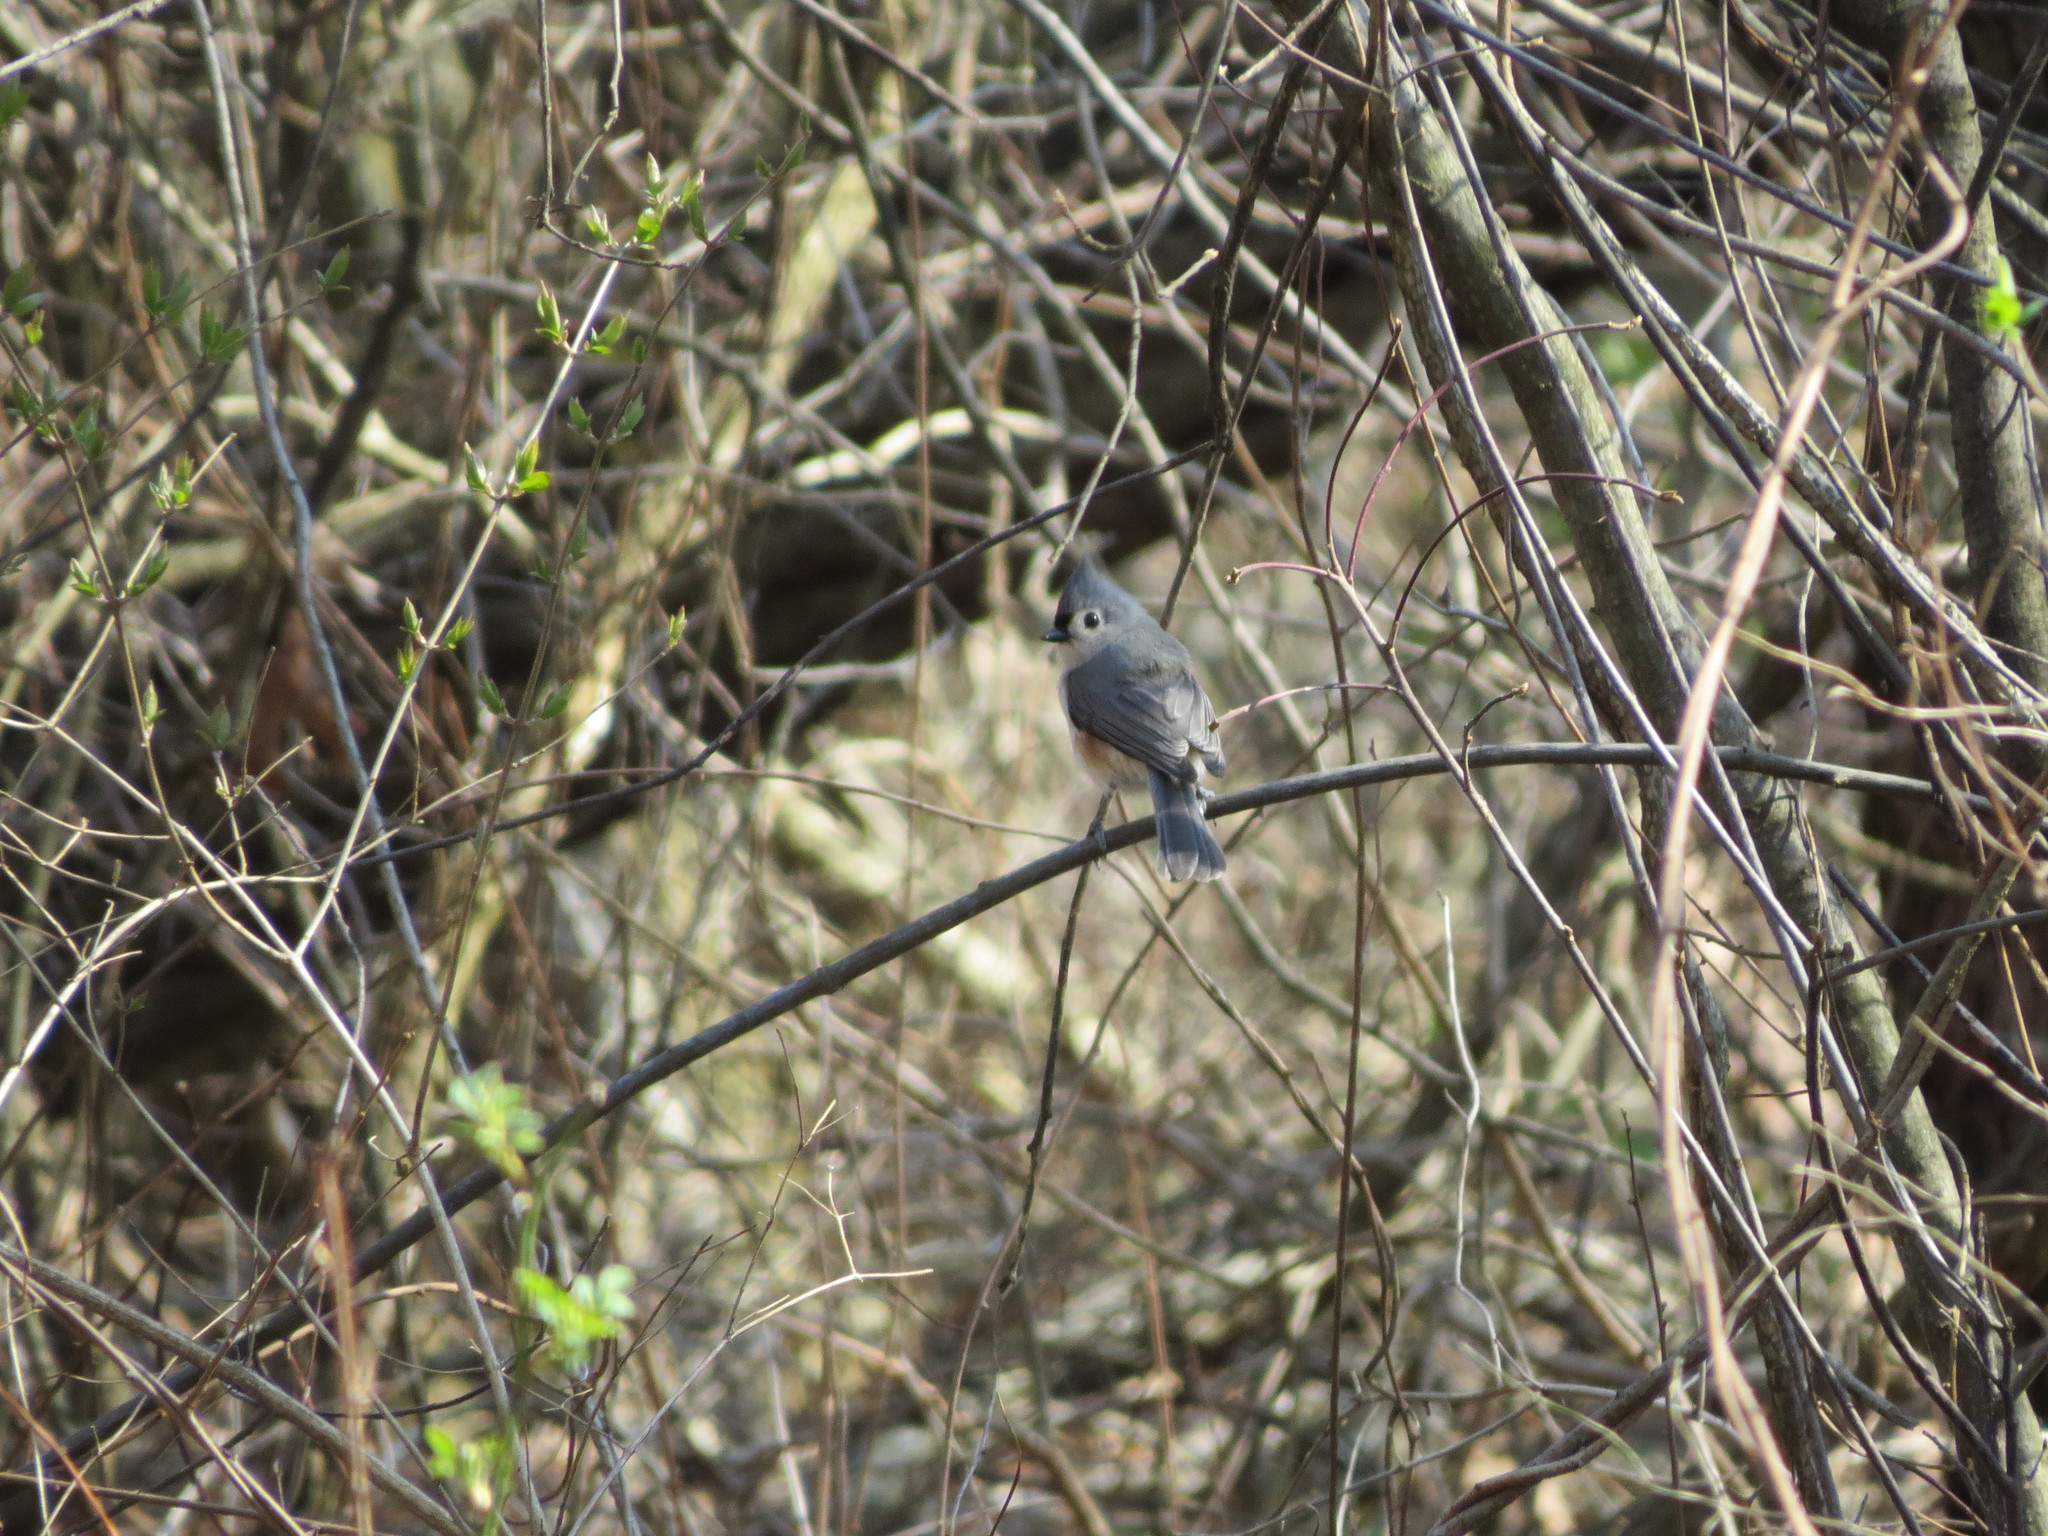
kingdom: Animalia
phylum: Chordata
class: Aves
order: Passeriformes
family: Paridae
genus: Baeolophus
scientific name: Baeolophus bicolor
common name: Tufted titmouse
